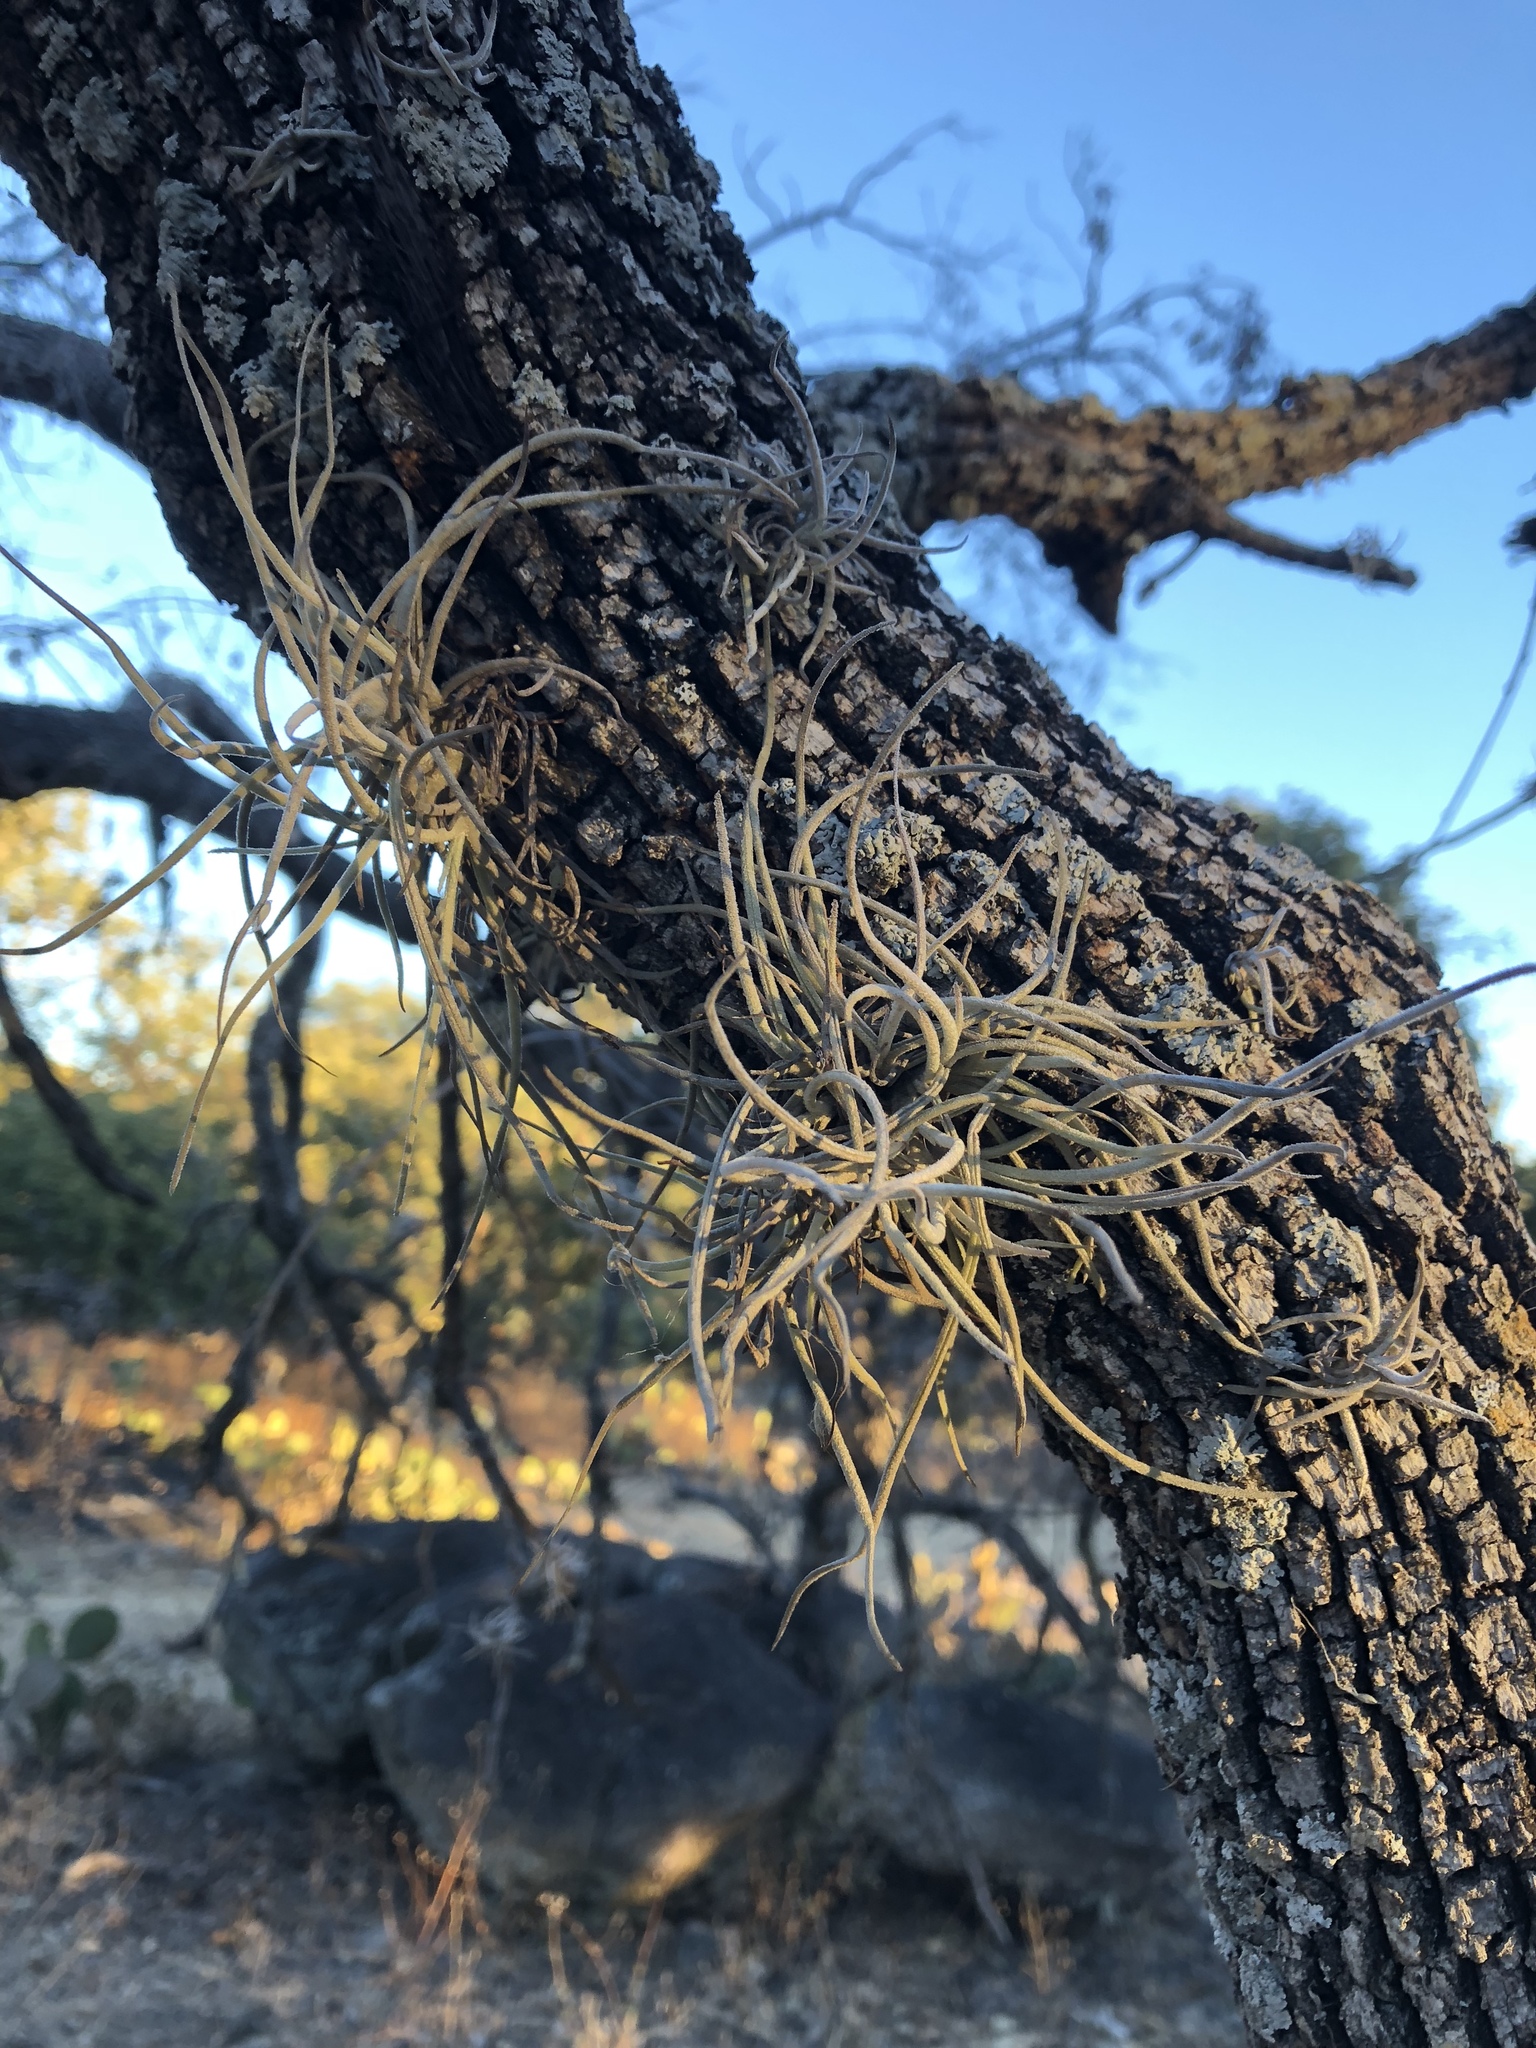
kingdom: Plantae
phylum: Tracheophyta
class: Liliopsida
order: Poales
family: Bromeliaceae
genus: Tillandsia
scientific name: Tillandsia recurvata
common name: Small ballmoss
